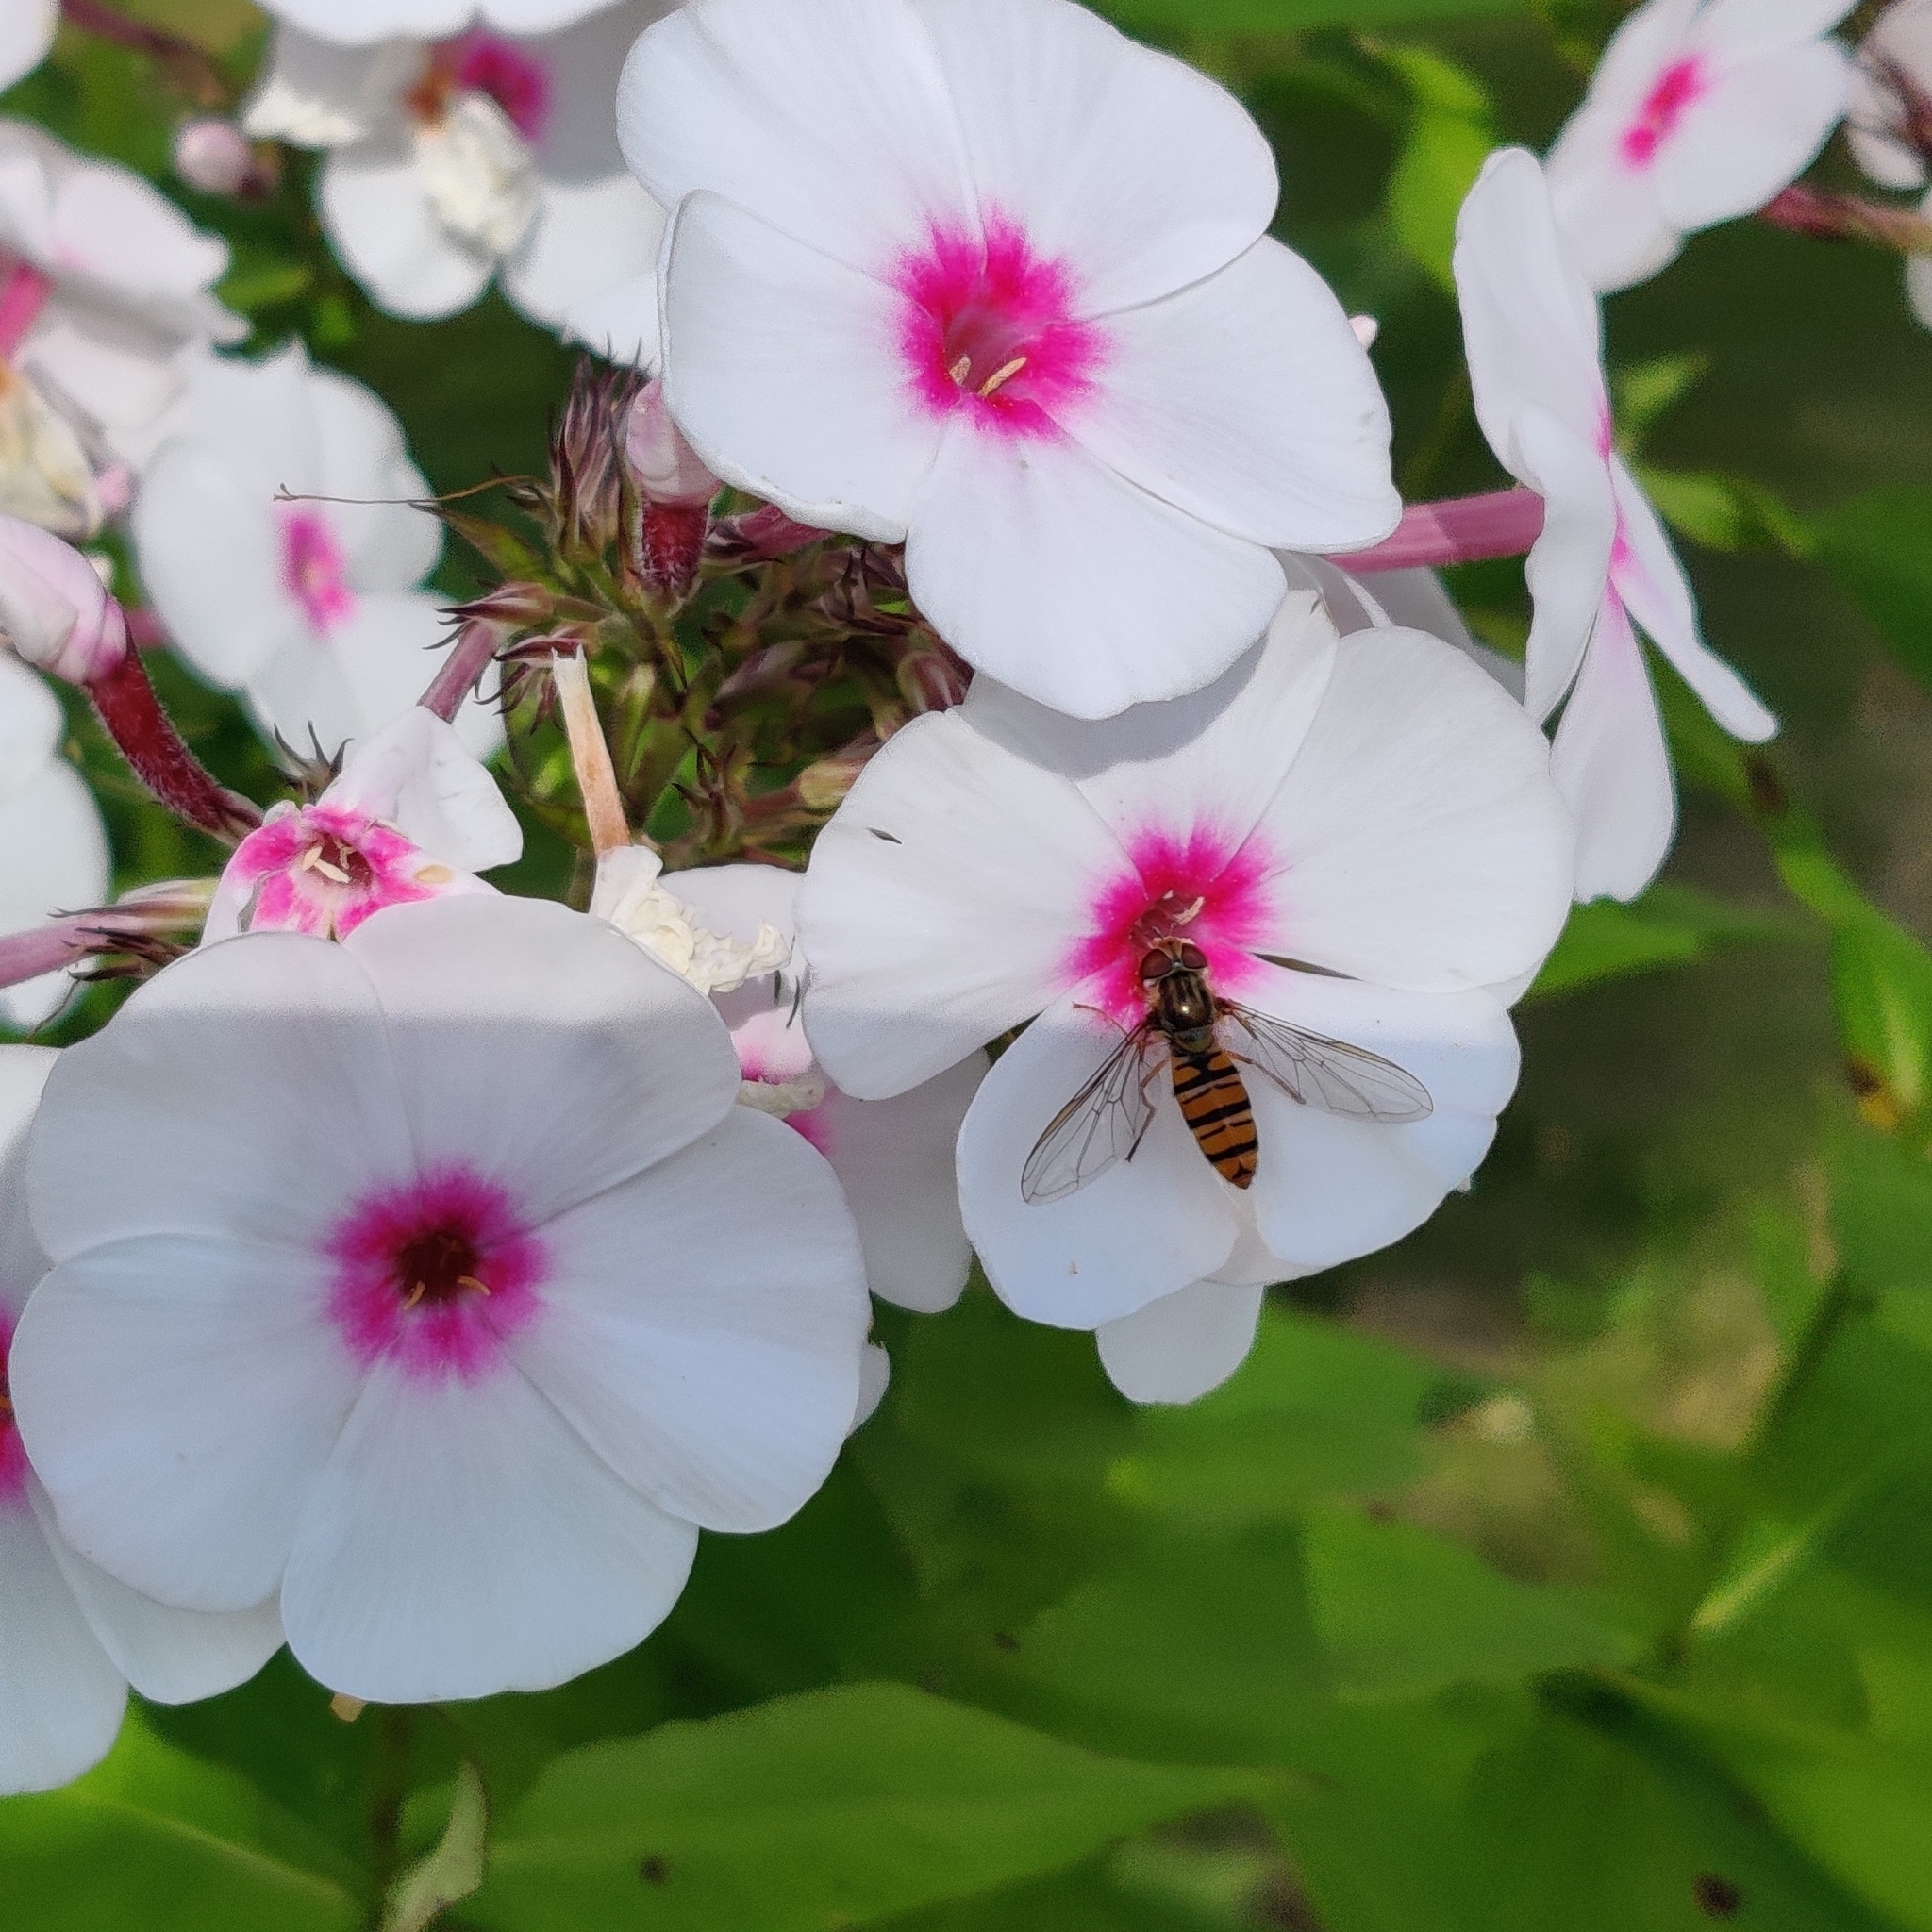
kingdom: Animalia
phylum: Arthropoda
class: Insecta
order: Diptera
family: Syrphidae
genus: Episyrphus
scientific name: Episyrphus balteatus
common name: Marmalade hoverfly
